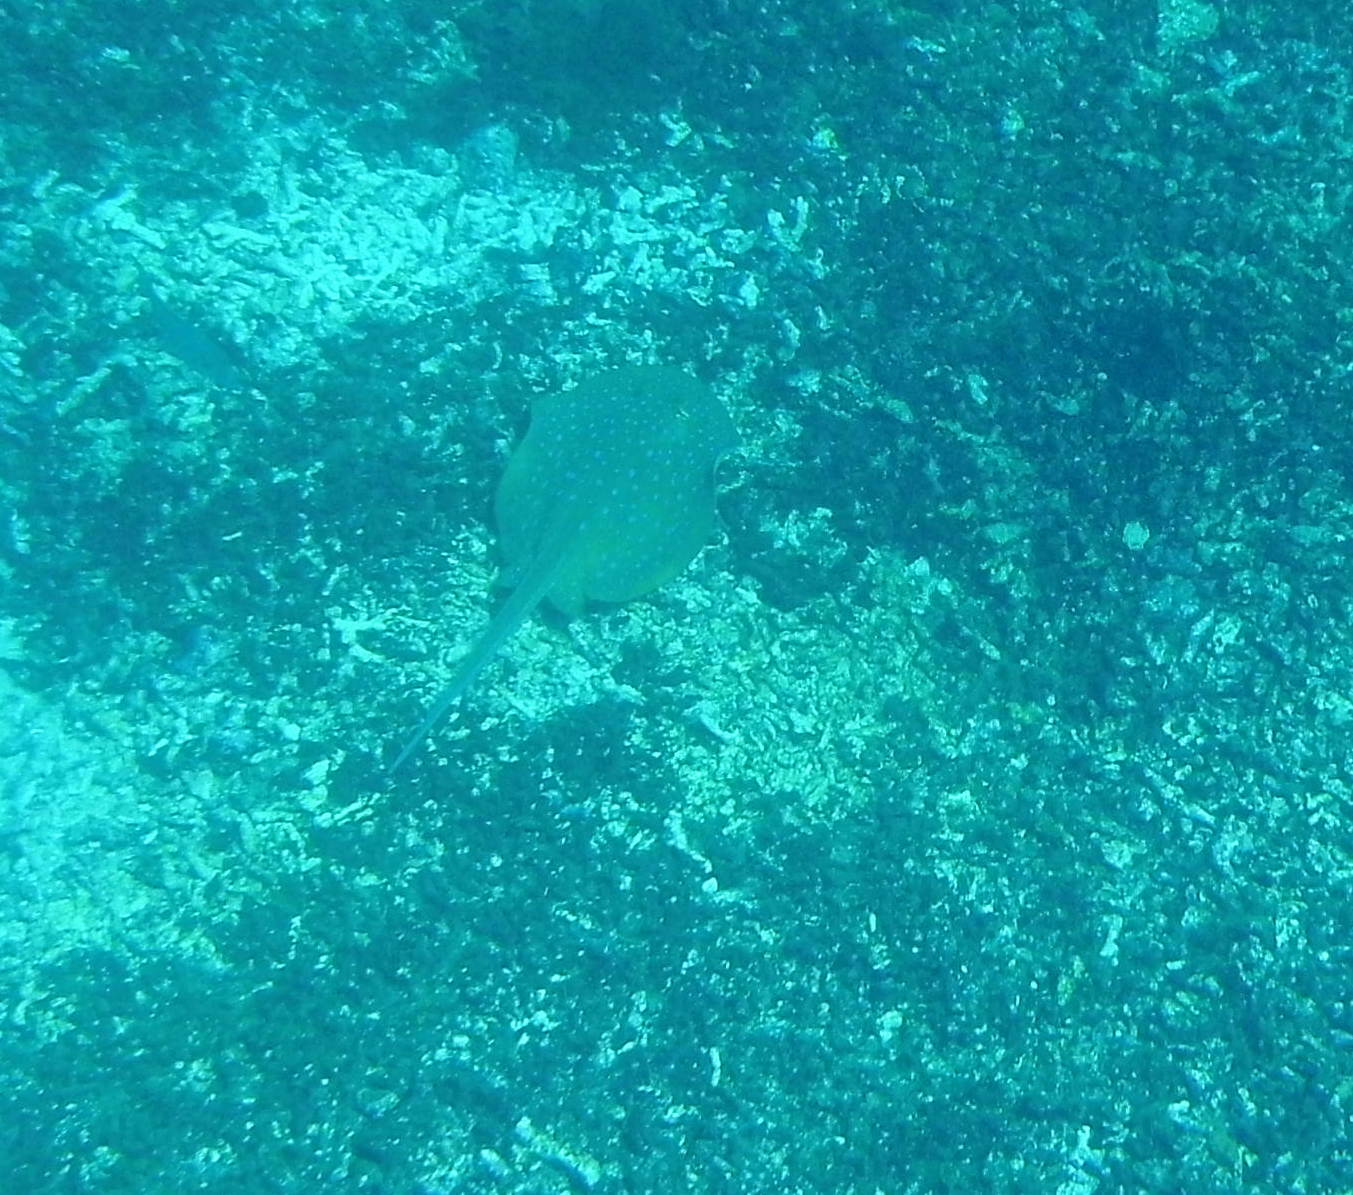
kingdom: Animalia
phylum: Chordata
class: Elasmobranchii
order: Myliobatiformes
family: Dasyatidae
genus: Taeniura
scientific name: Taeniura lymma
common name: Bluespotted ribbontail ray
